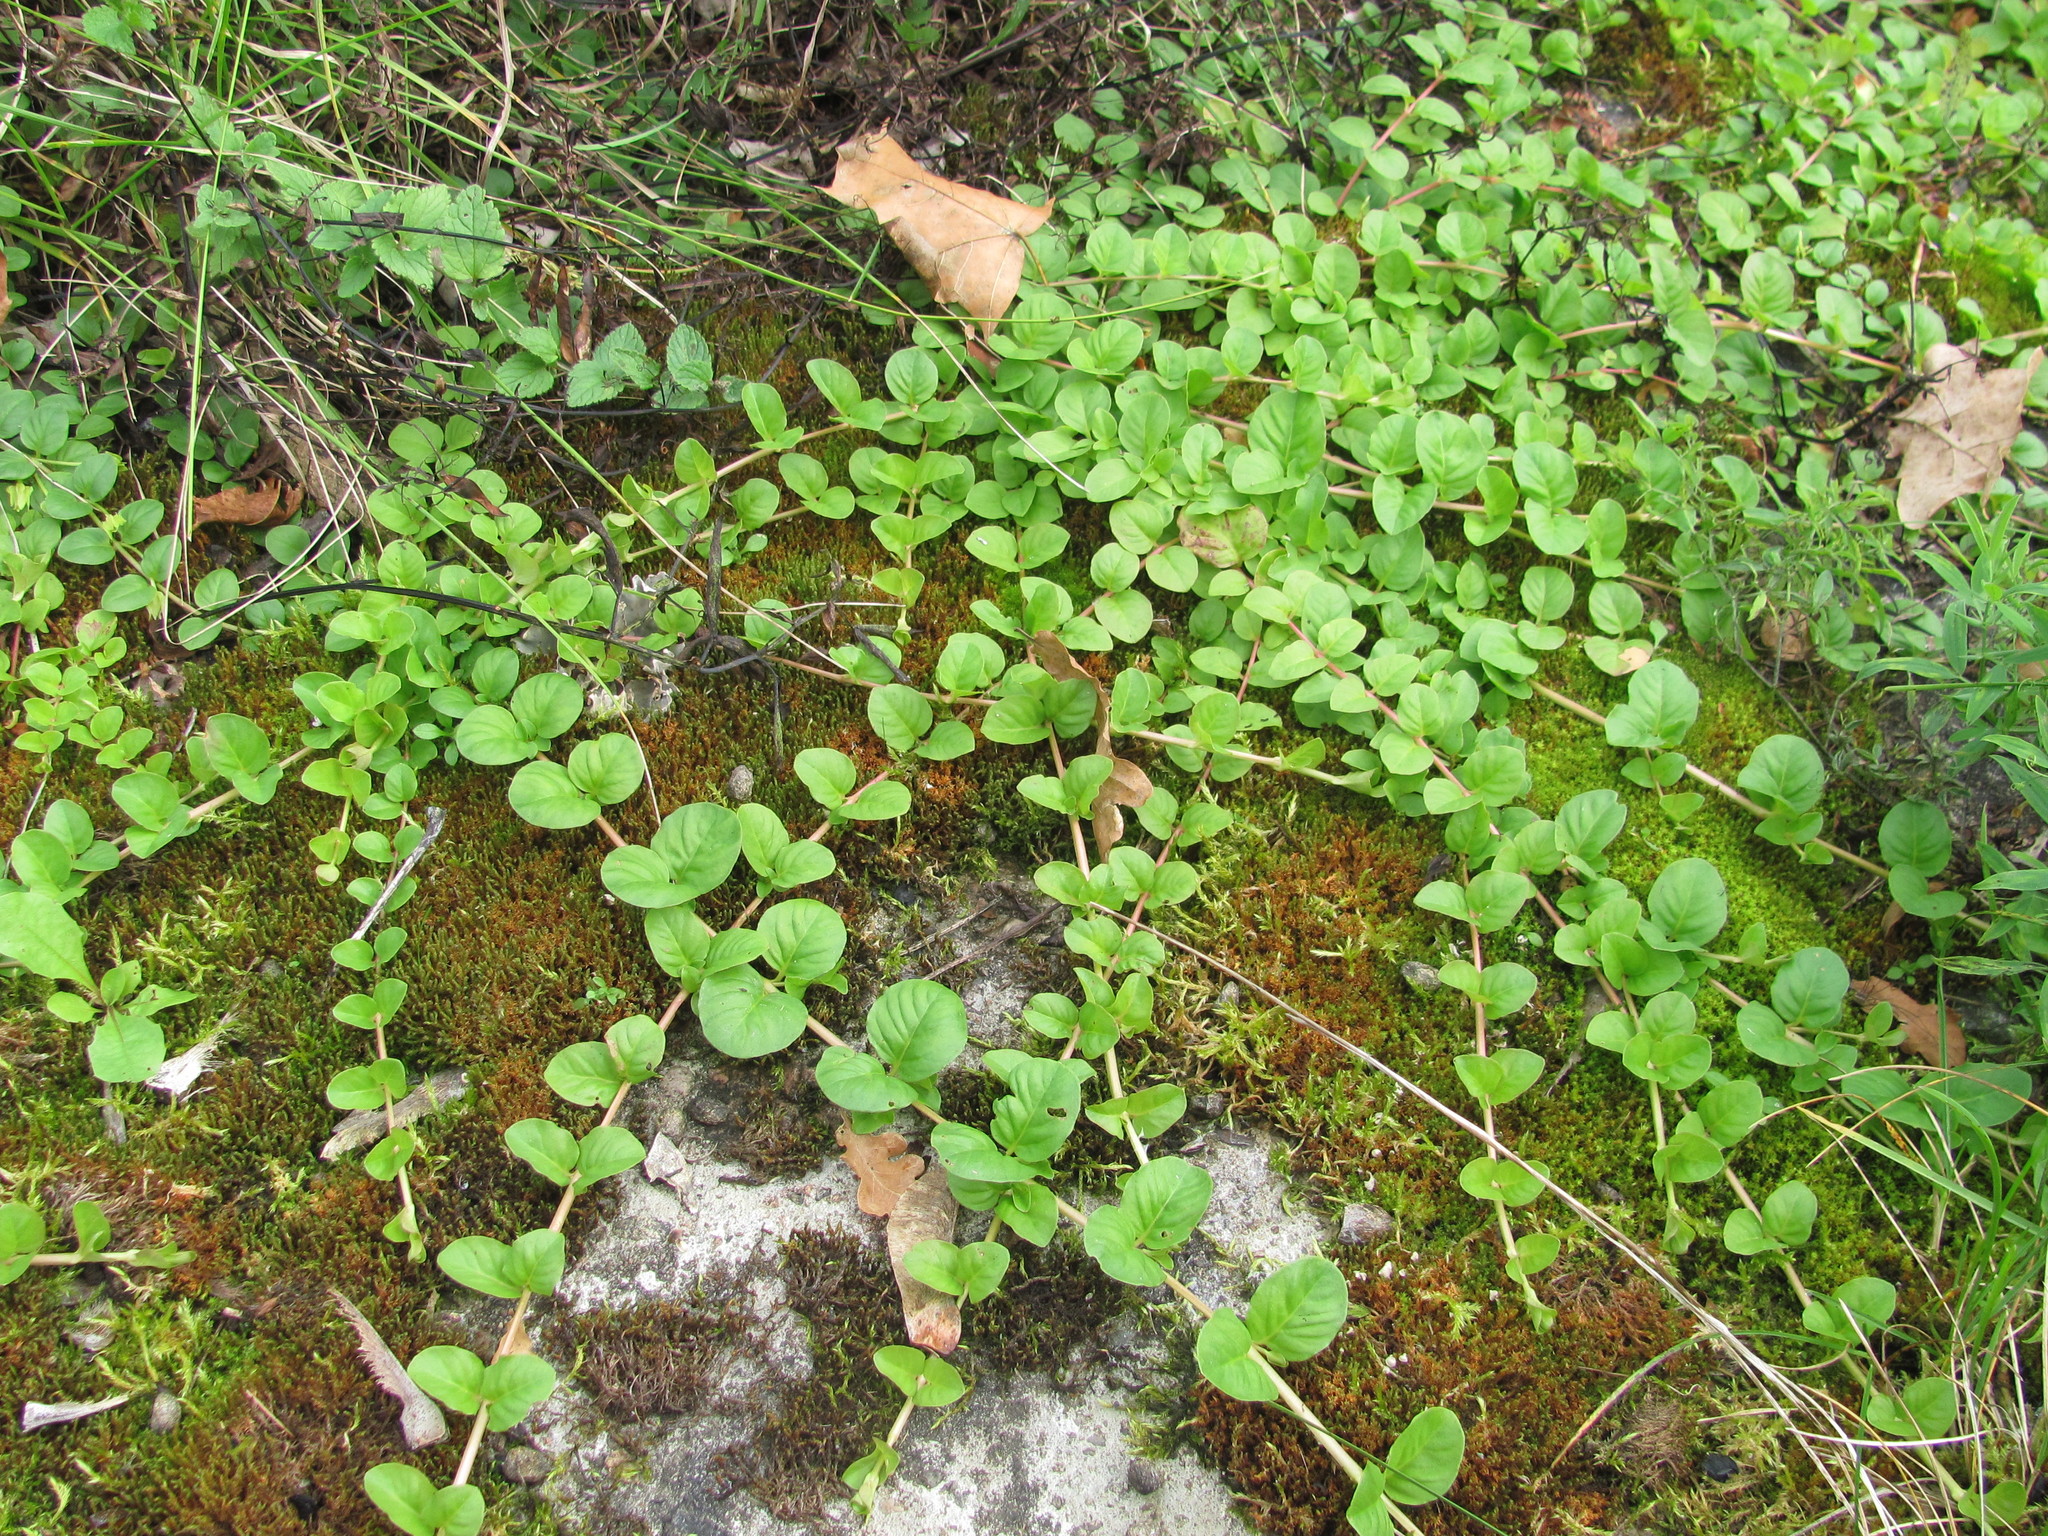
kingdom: Plantae
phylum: Tracheophyta
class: Magnoliopsida
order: Ericales
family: Primulaceae
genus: Lysimachia
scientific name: Lysimachia nummularia
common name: Moneywort
